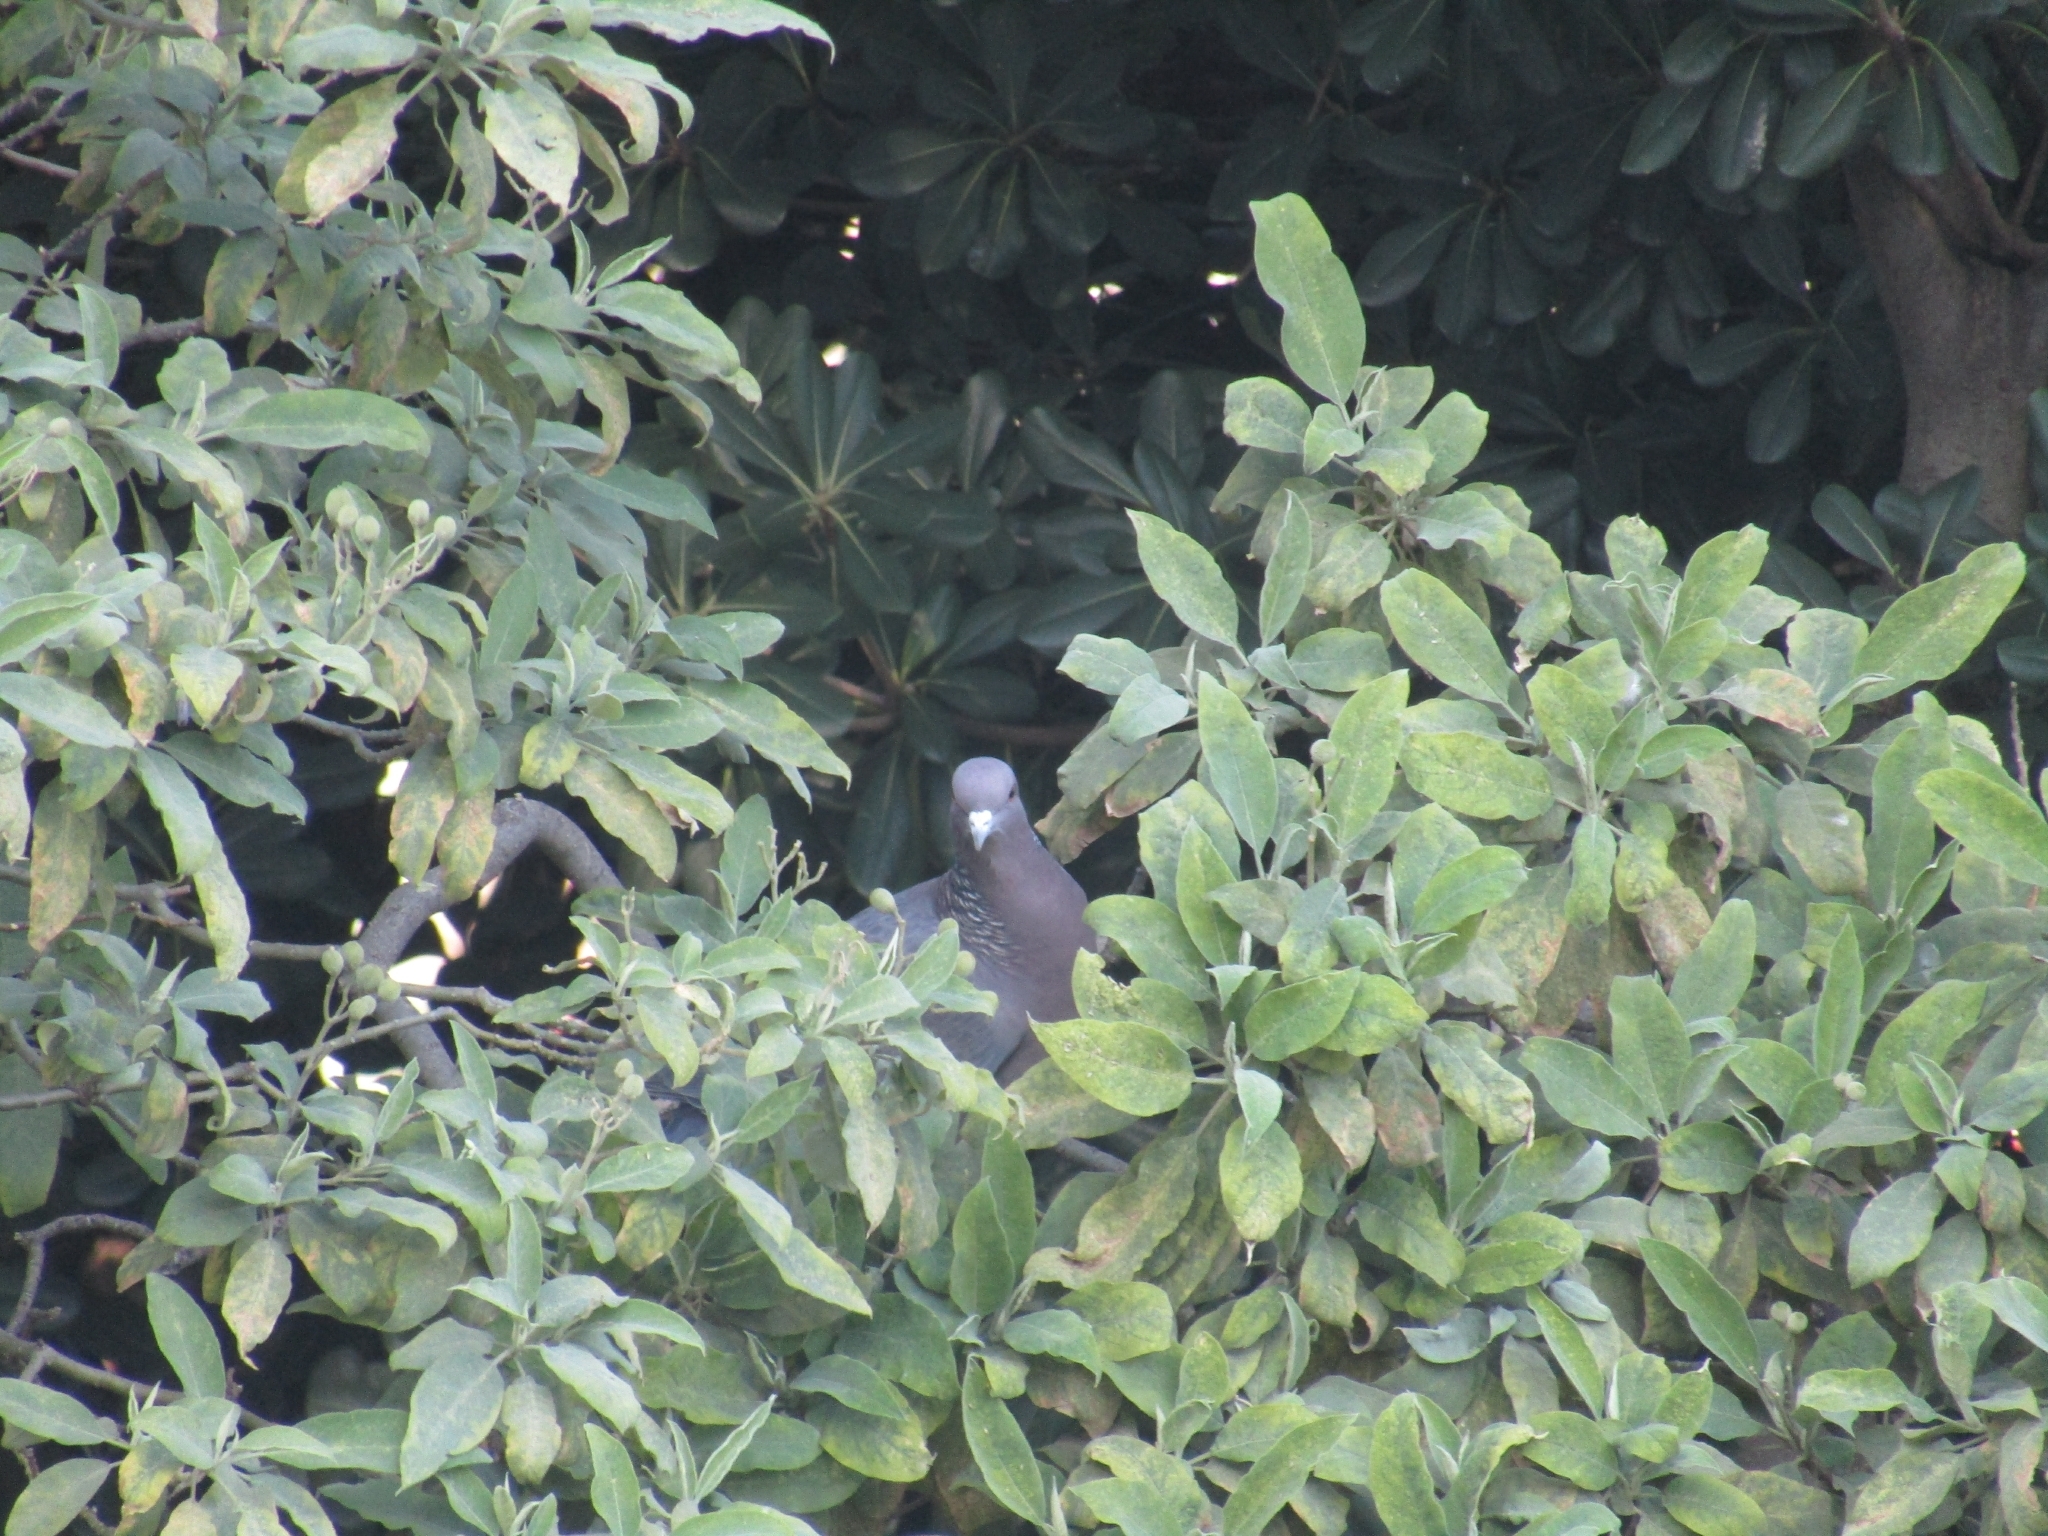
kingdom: Animalia
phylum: Chordata
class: Aves
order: Columbiformes
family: Columbidae
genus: Patagioenas
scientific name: Patagioenas picazuro
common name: Picazuro pigeon
